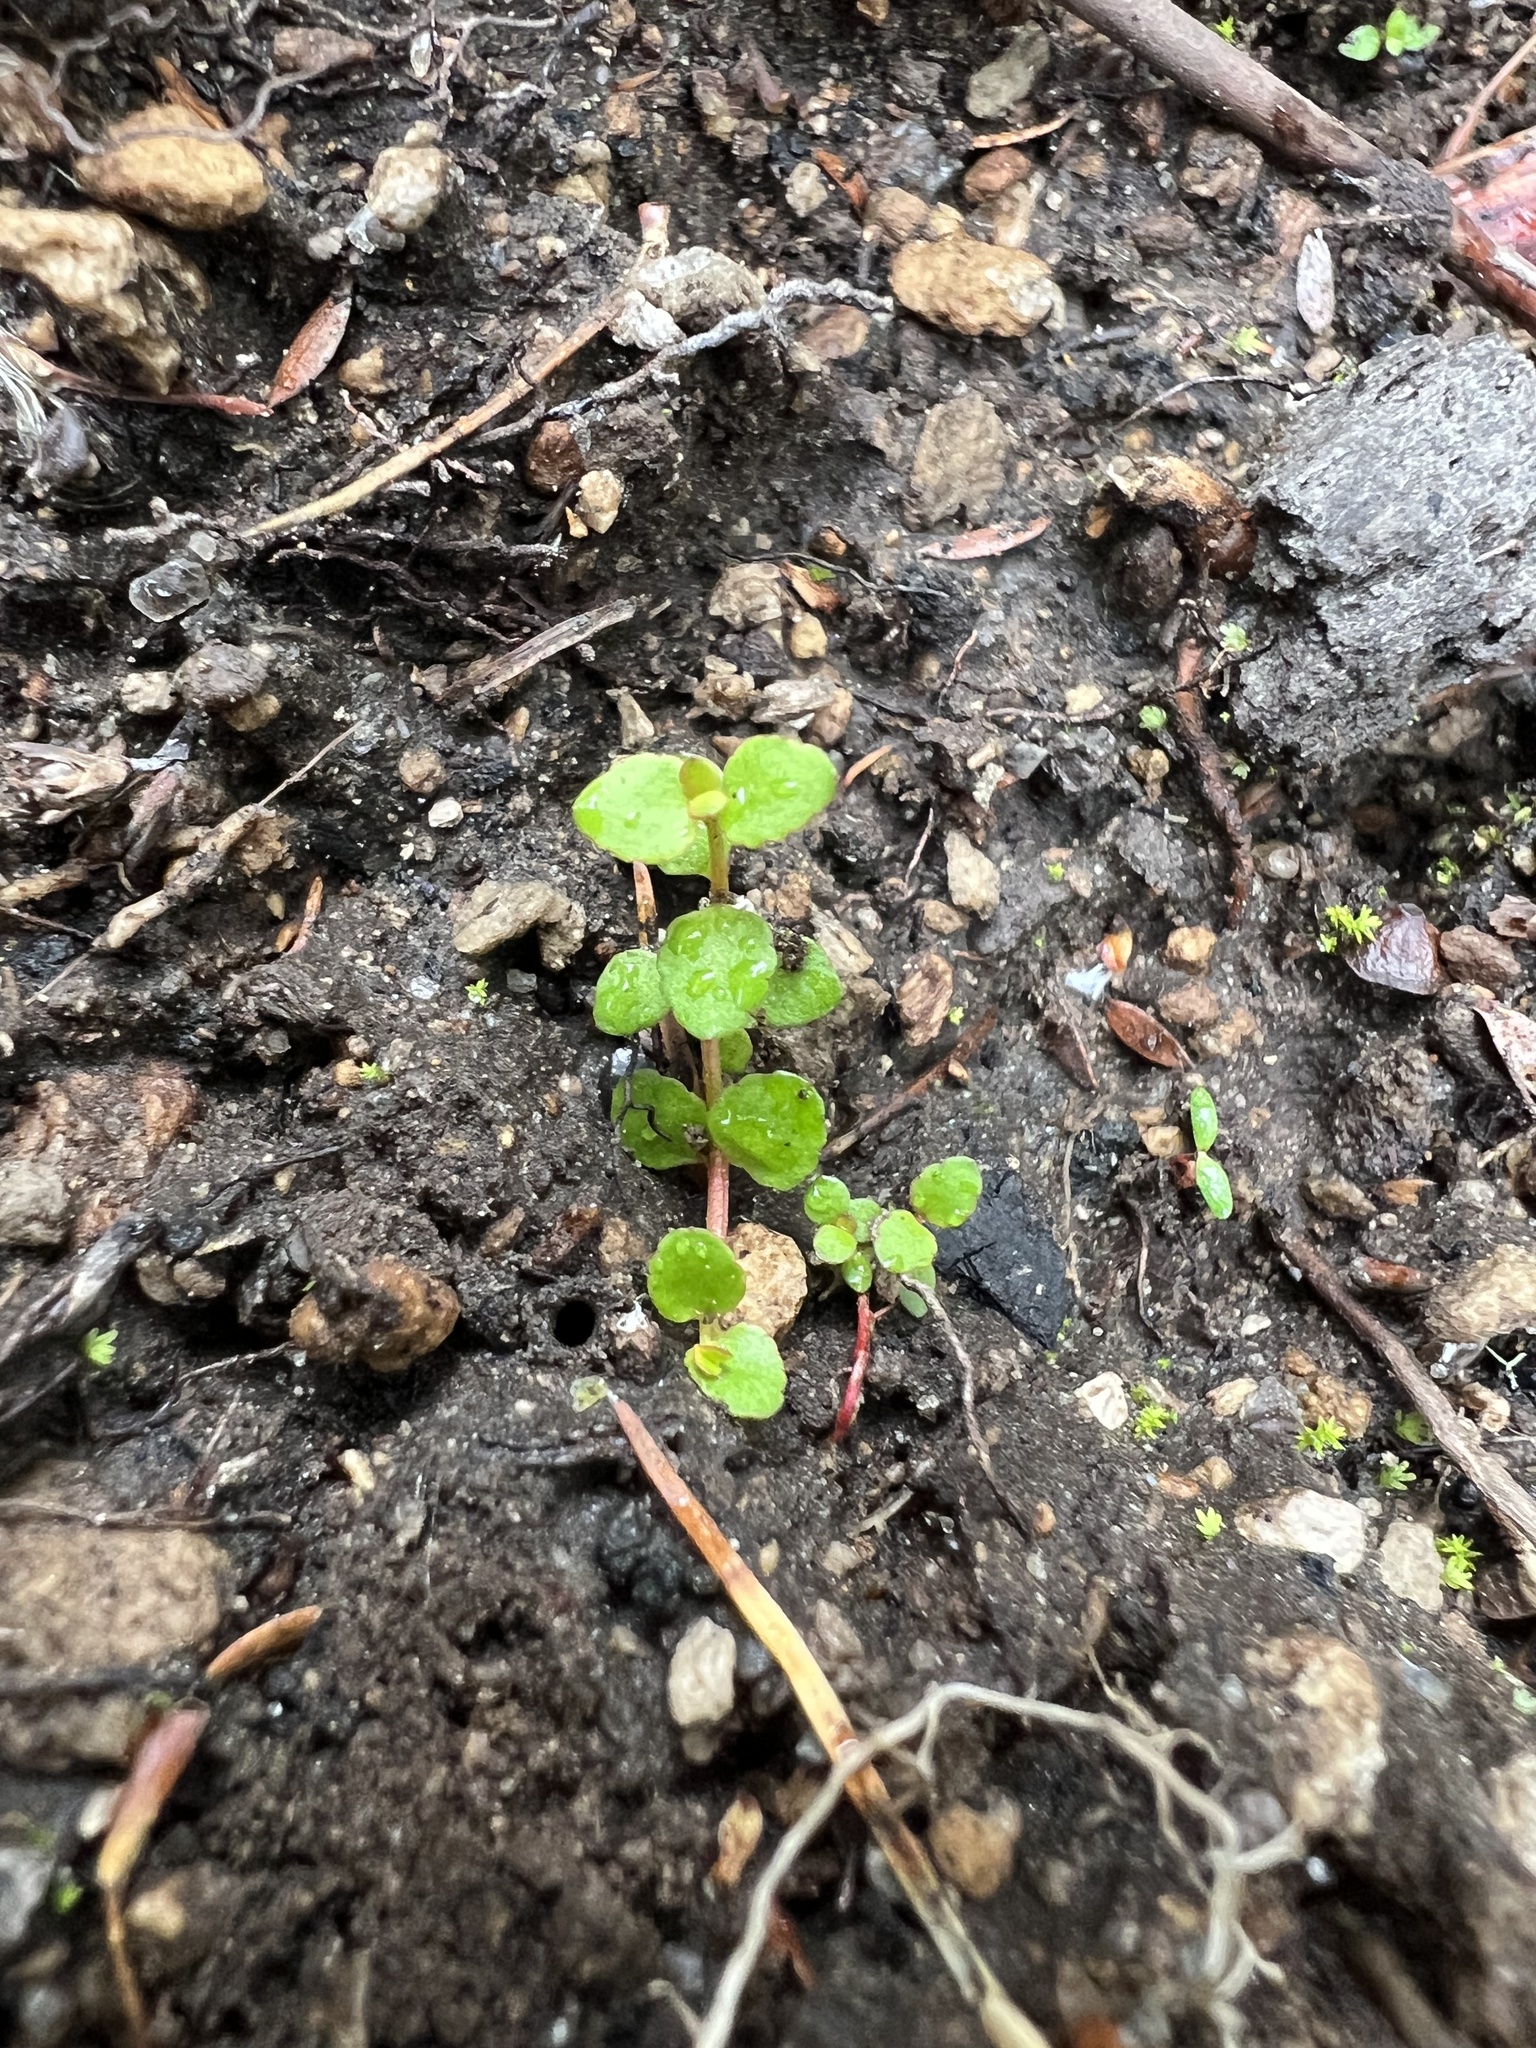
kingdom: Plantae
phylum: Tracheophyta
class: Magnoliopsida
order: Saxifragales
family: Haloragaceae
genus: Gonocarpus
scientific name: Gonocarpus micranthus
